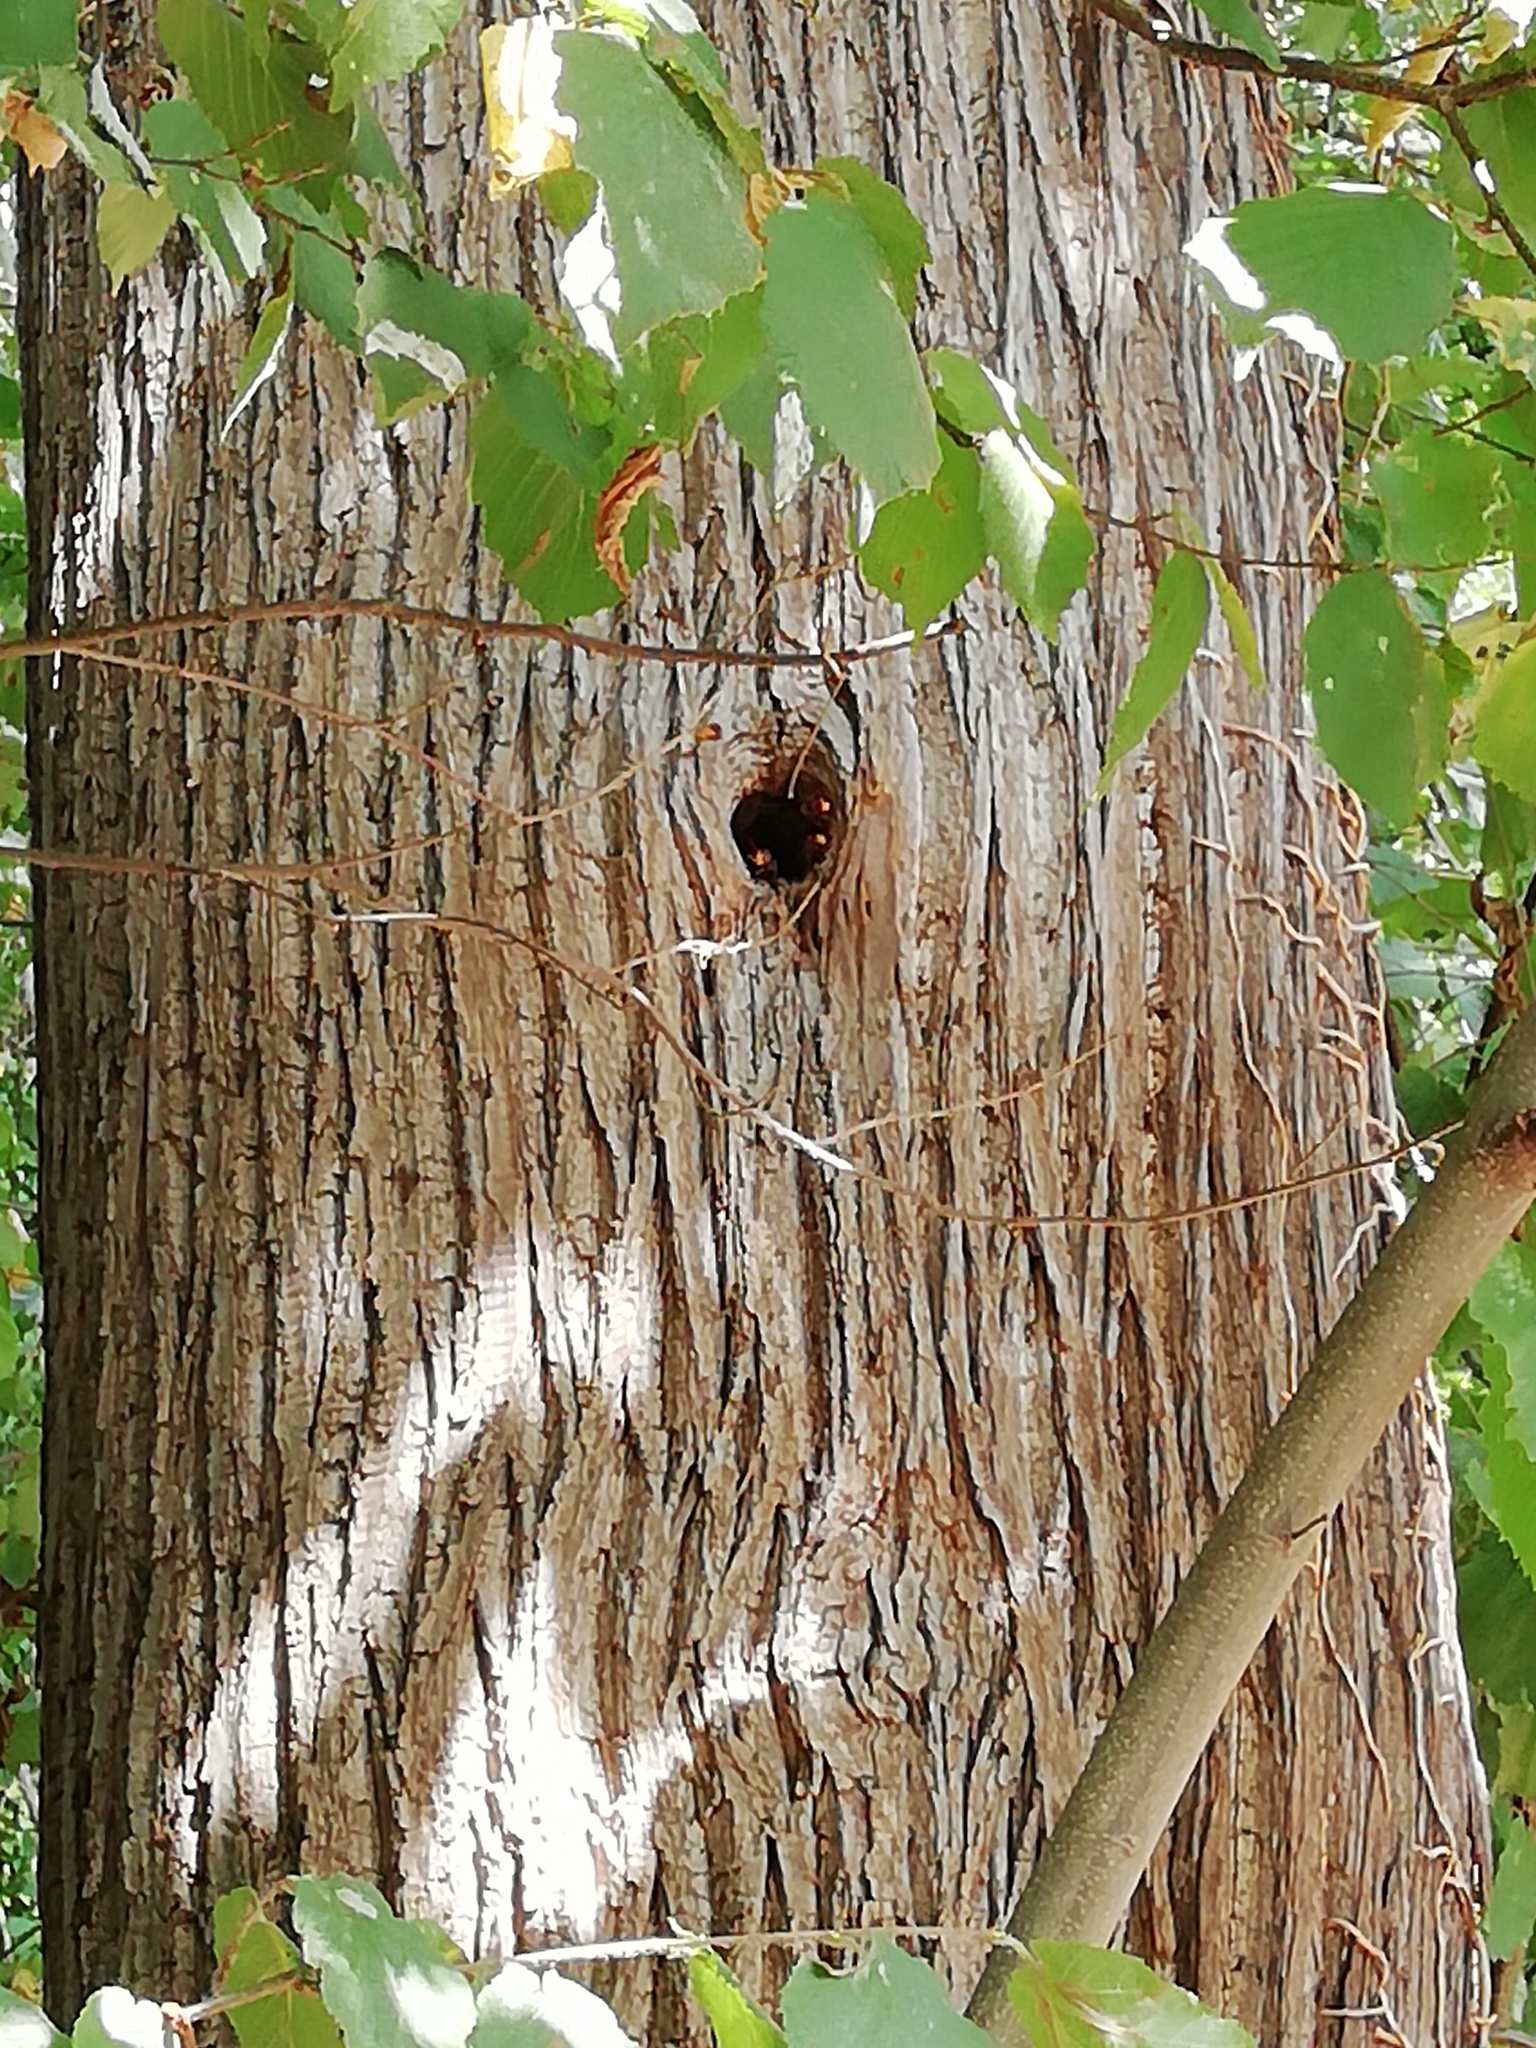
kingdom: Animalia
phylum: Arthropoda
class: Insecta
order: Hymenoptera
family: Vespidae
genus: Vespa
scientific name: Vespa crabro
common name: Hornet
